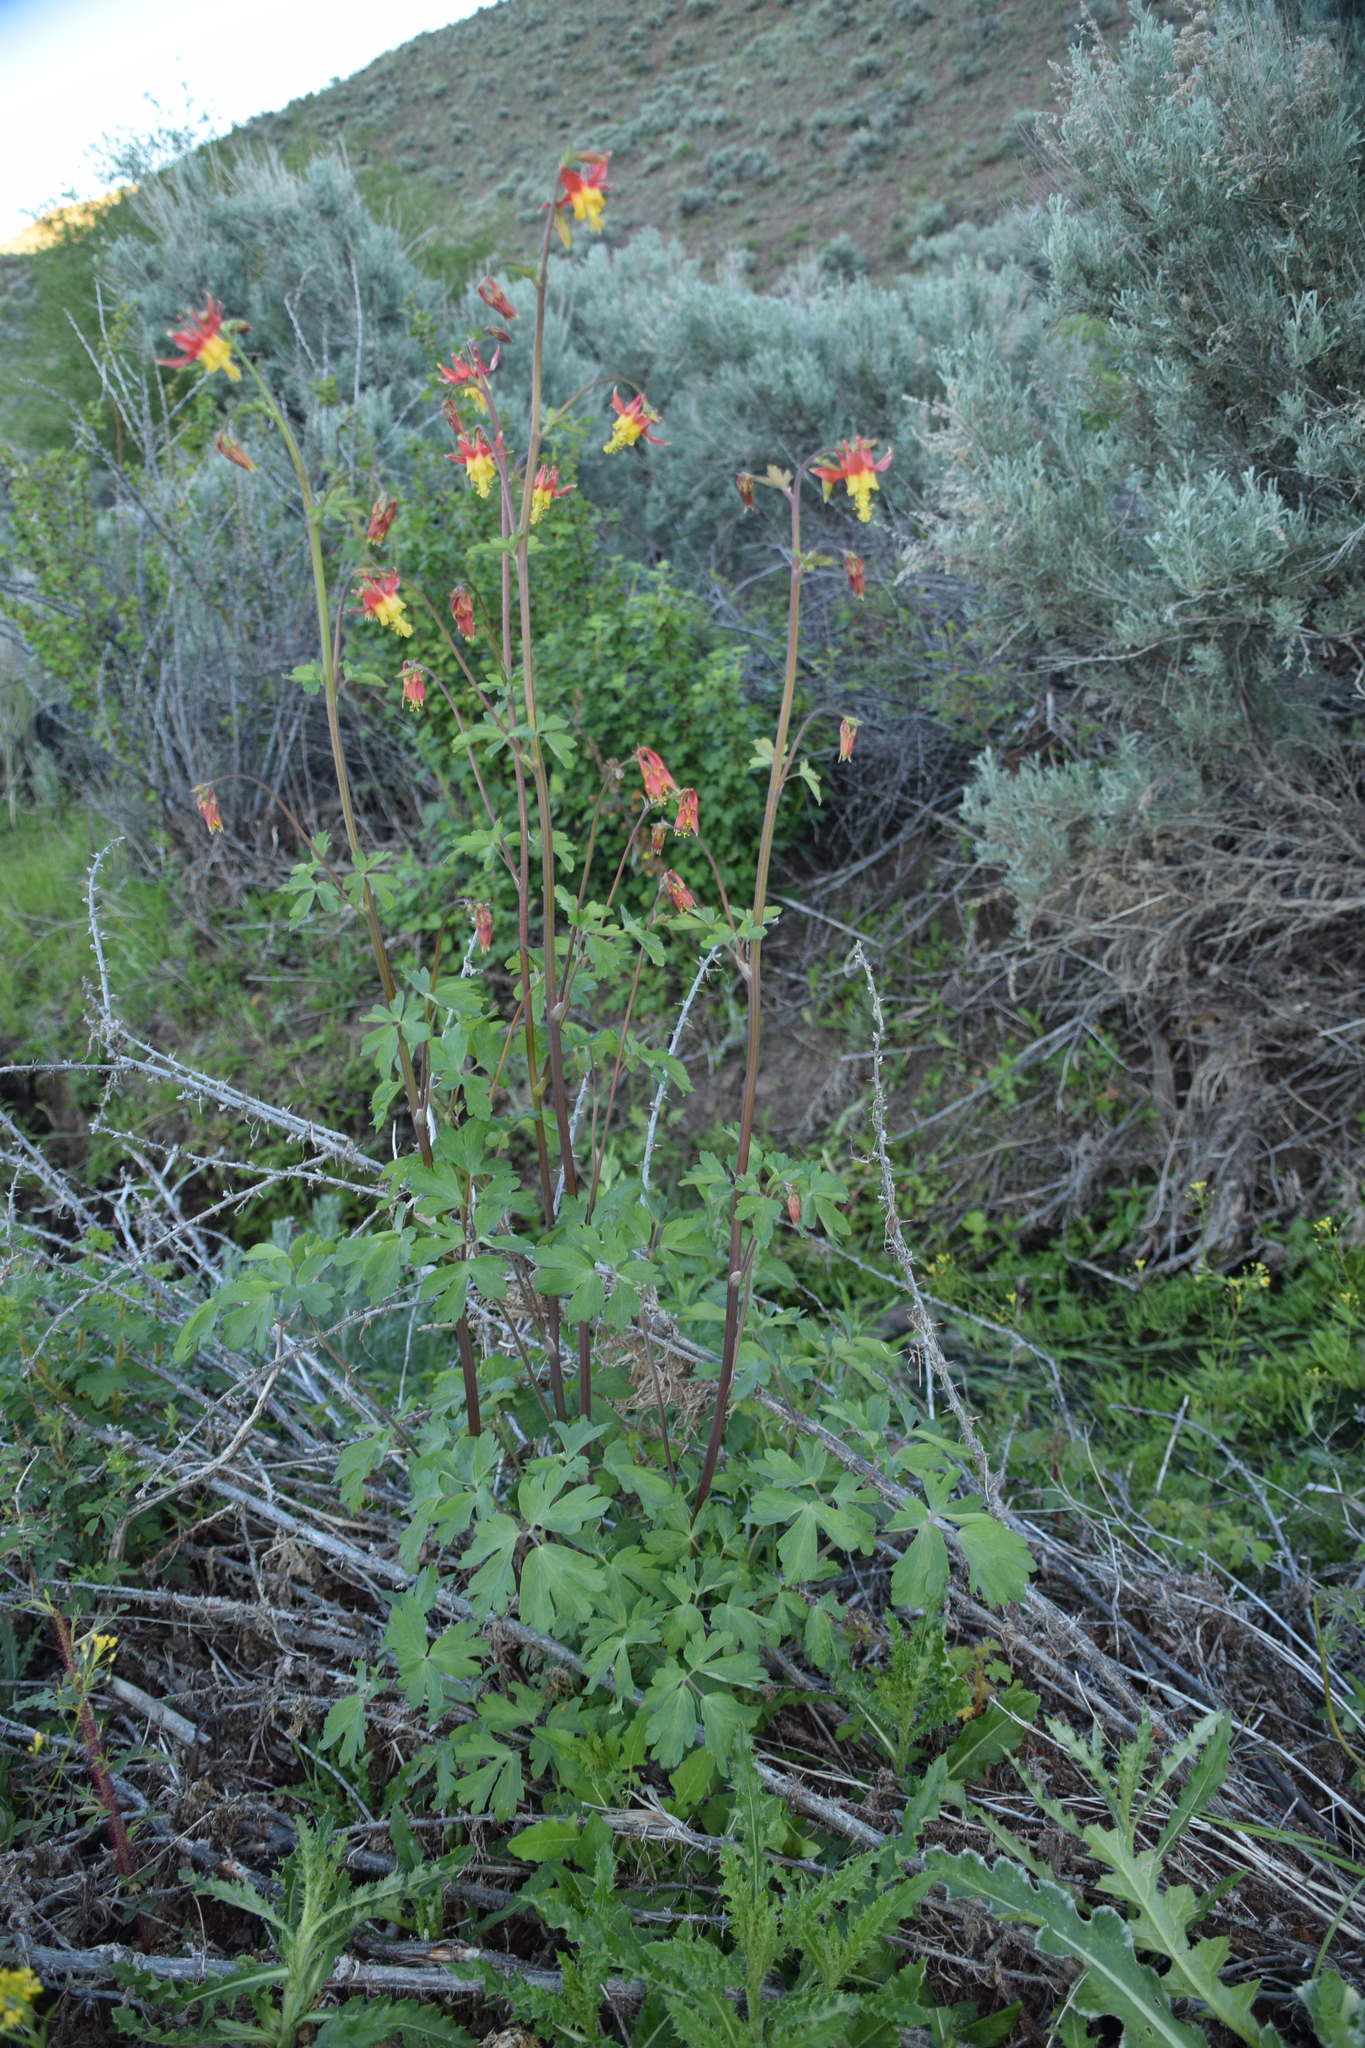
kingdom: Plantae
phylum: Tracheophyta
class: Magnoliopsida
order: Ranunculales
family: Ranunculaceae
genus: Aquilegia
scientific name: Aquilegia formosa
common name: Sitka columbine
